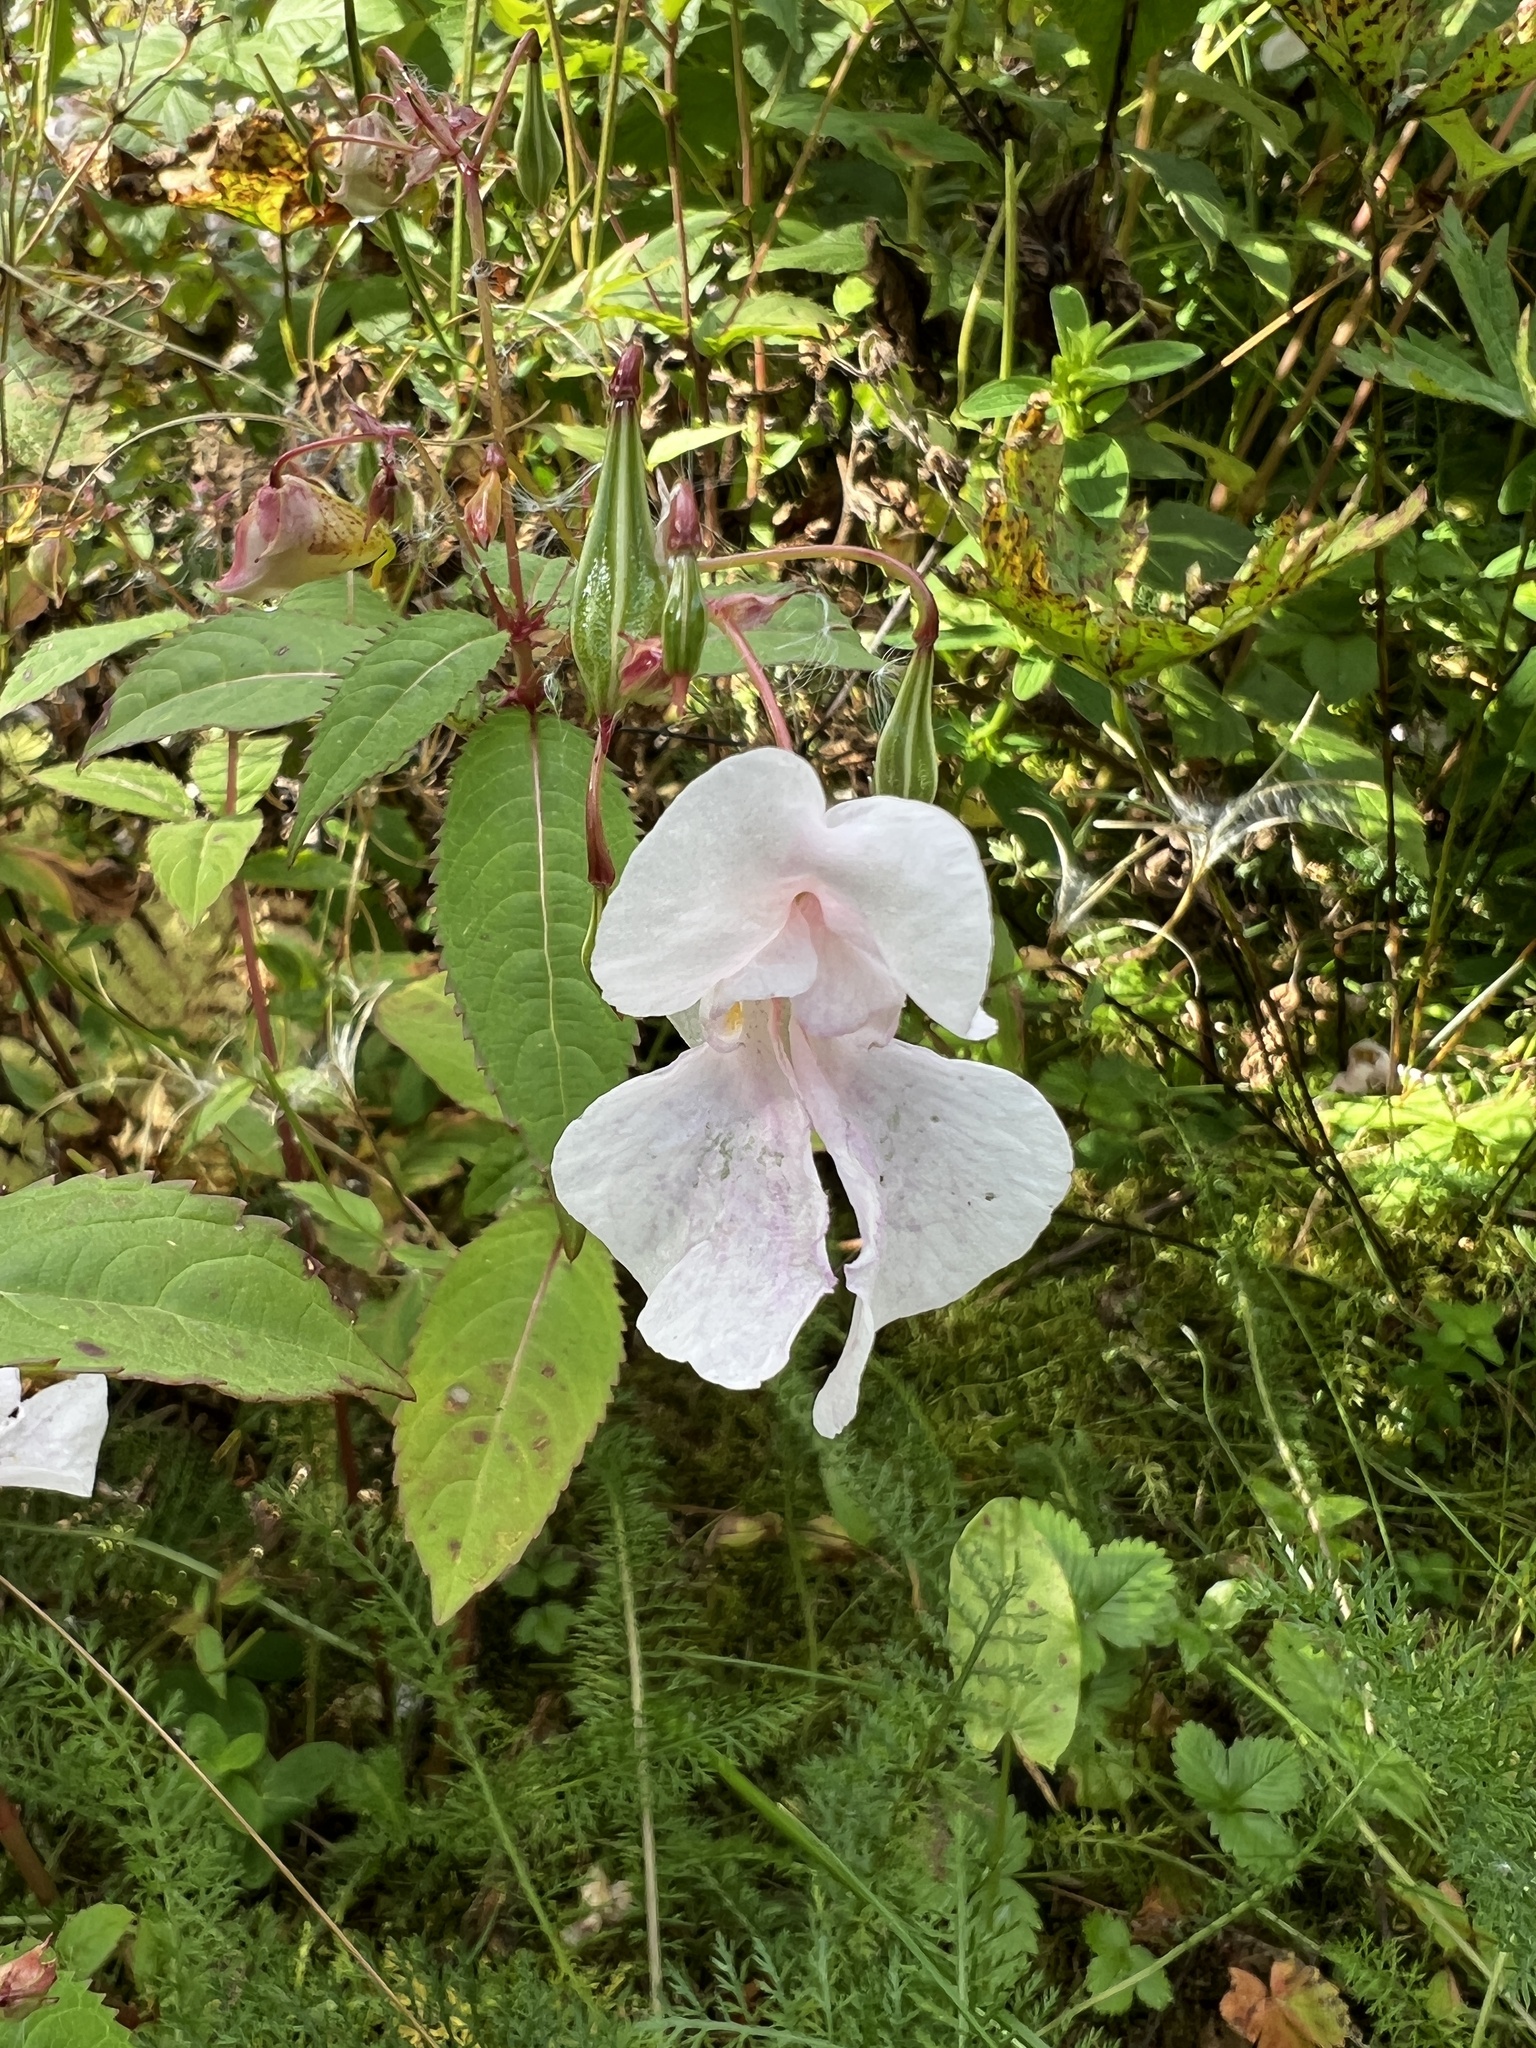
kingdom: Plantae
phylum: Tracheophyta
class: Magnoliopsida
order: Ericales
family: Balsaminaceae
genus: Impatiens
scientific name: Impatiens glandulifera
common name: Himalayan balsam
